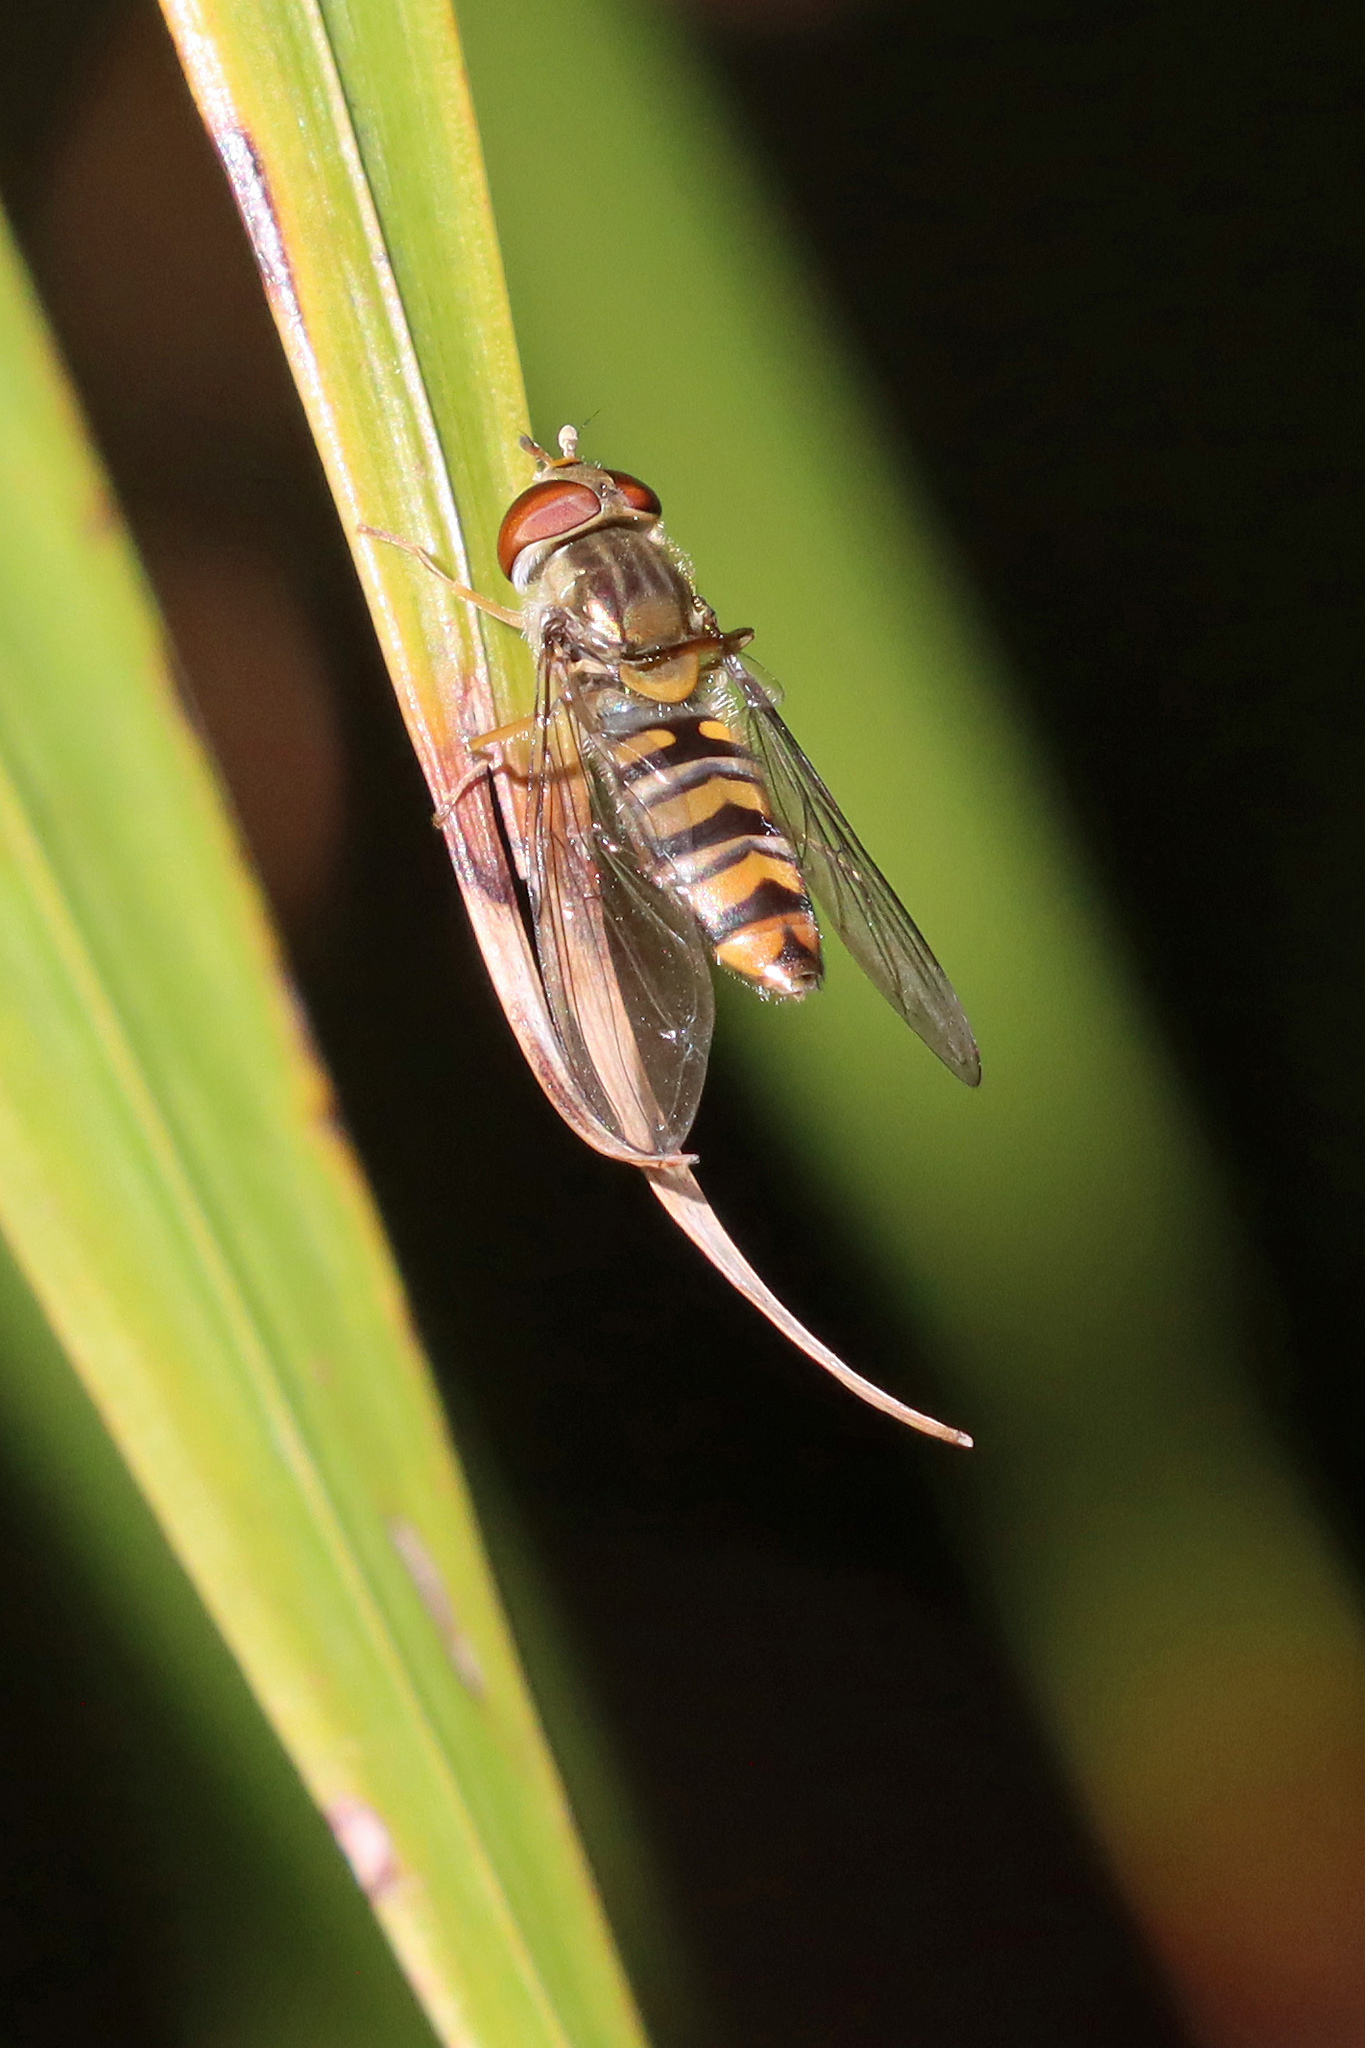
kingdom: Animalia
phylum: Arthropoda
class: Insecta
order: Diptera
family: Syrphidae
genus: Episyrphus
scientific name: Episyrphus balteatus
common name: Marmalade hoverfly
